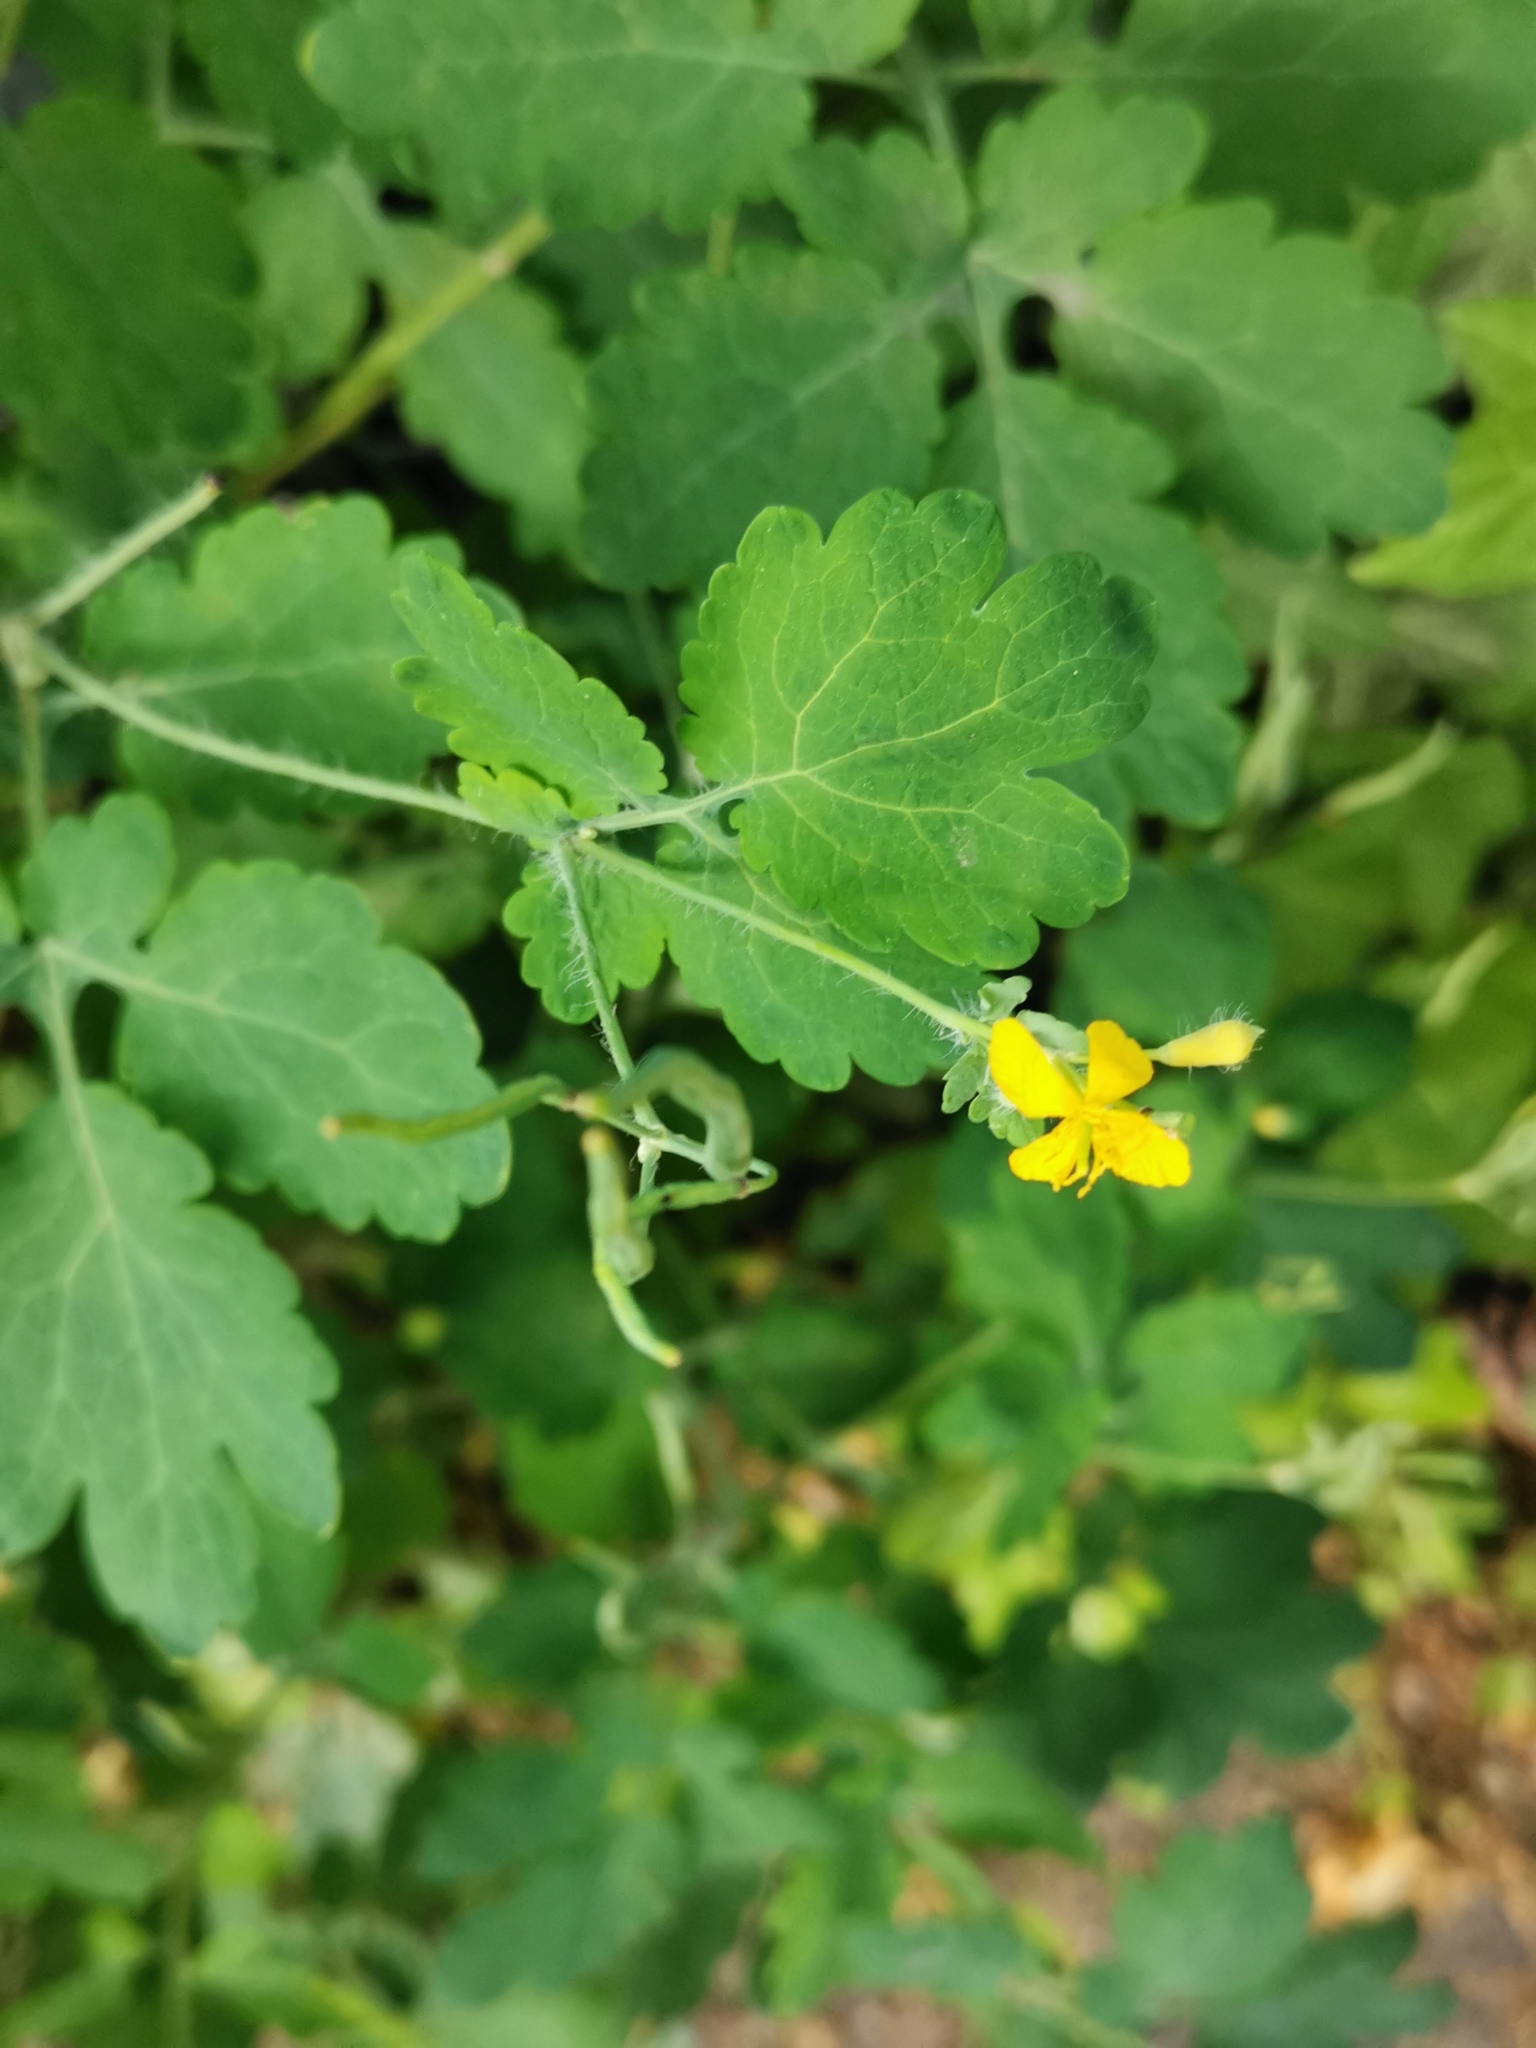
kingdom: Plantae
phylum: Tracheophyta
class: Magnoliopsida
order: Ranunculales
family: Papaveraceae
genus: Chelidonium
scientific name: Chelidonium majus
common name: Greater celandine
